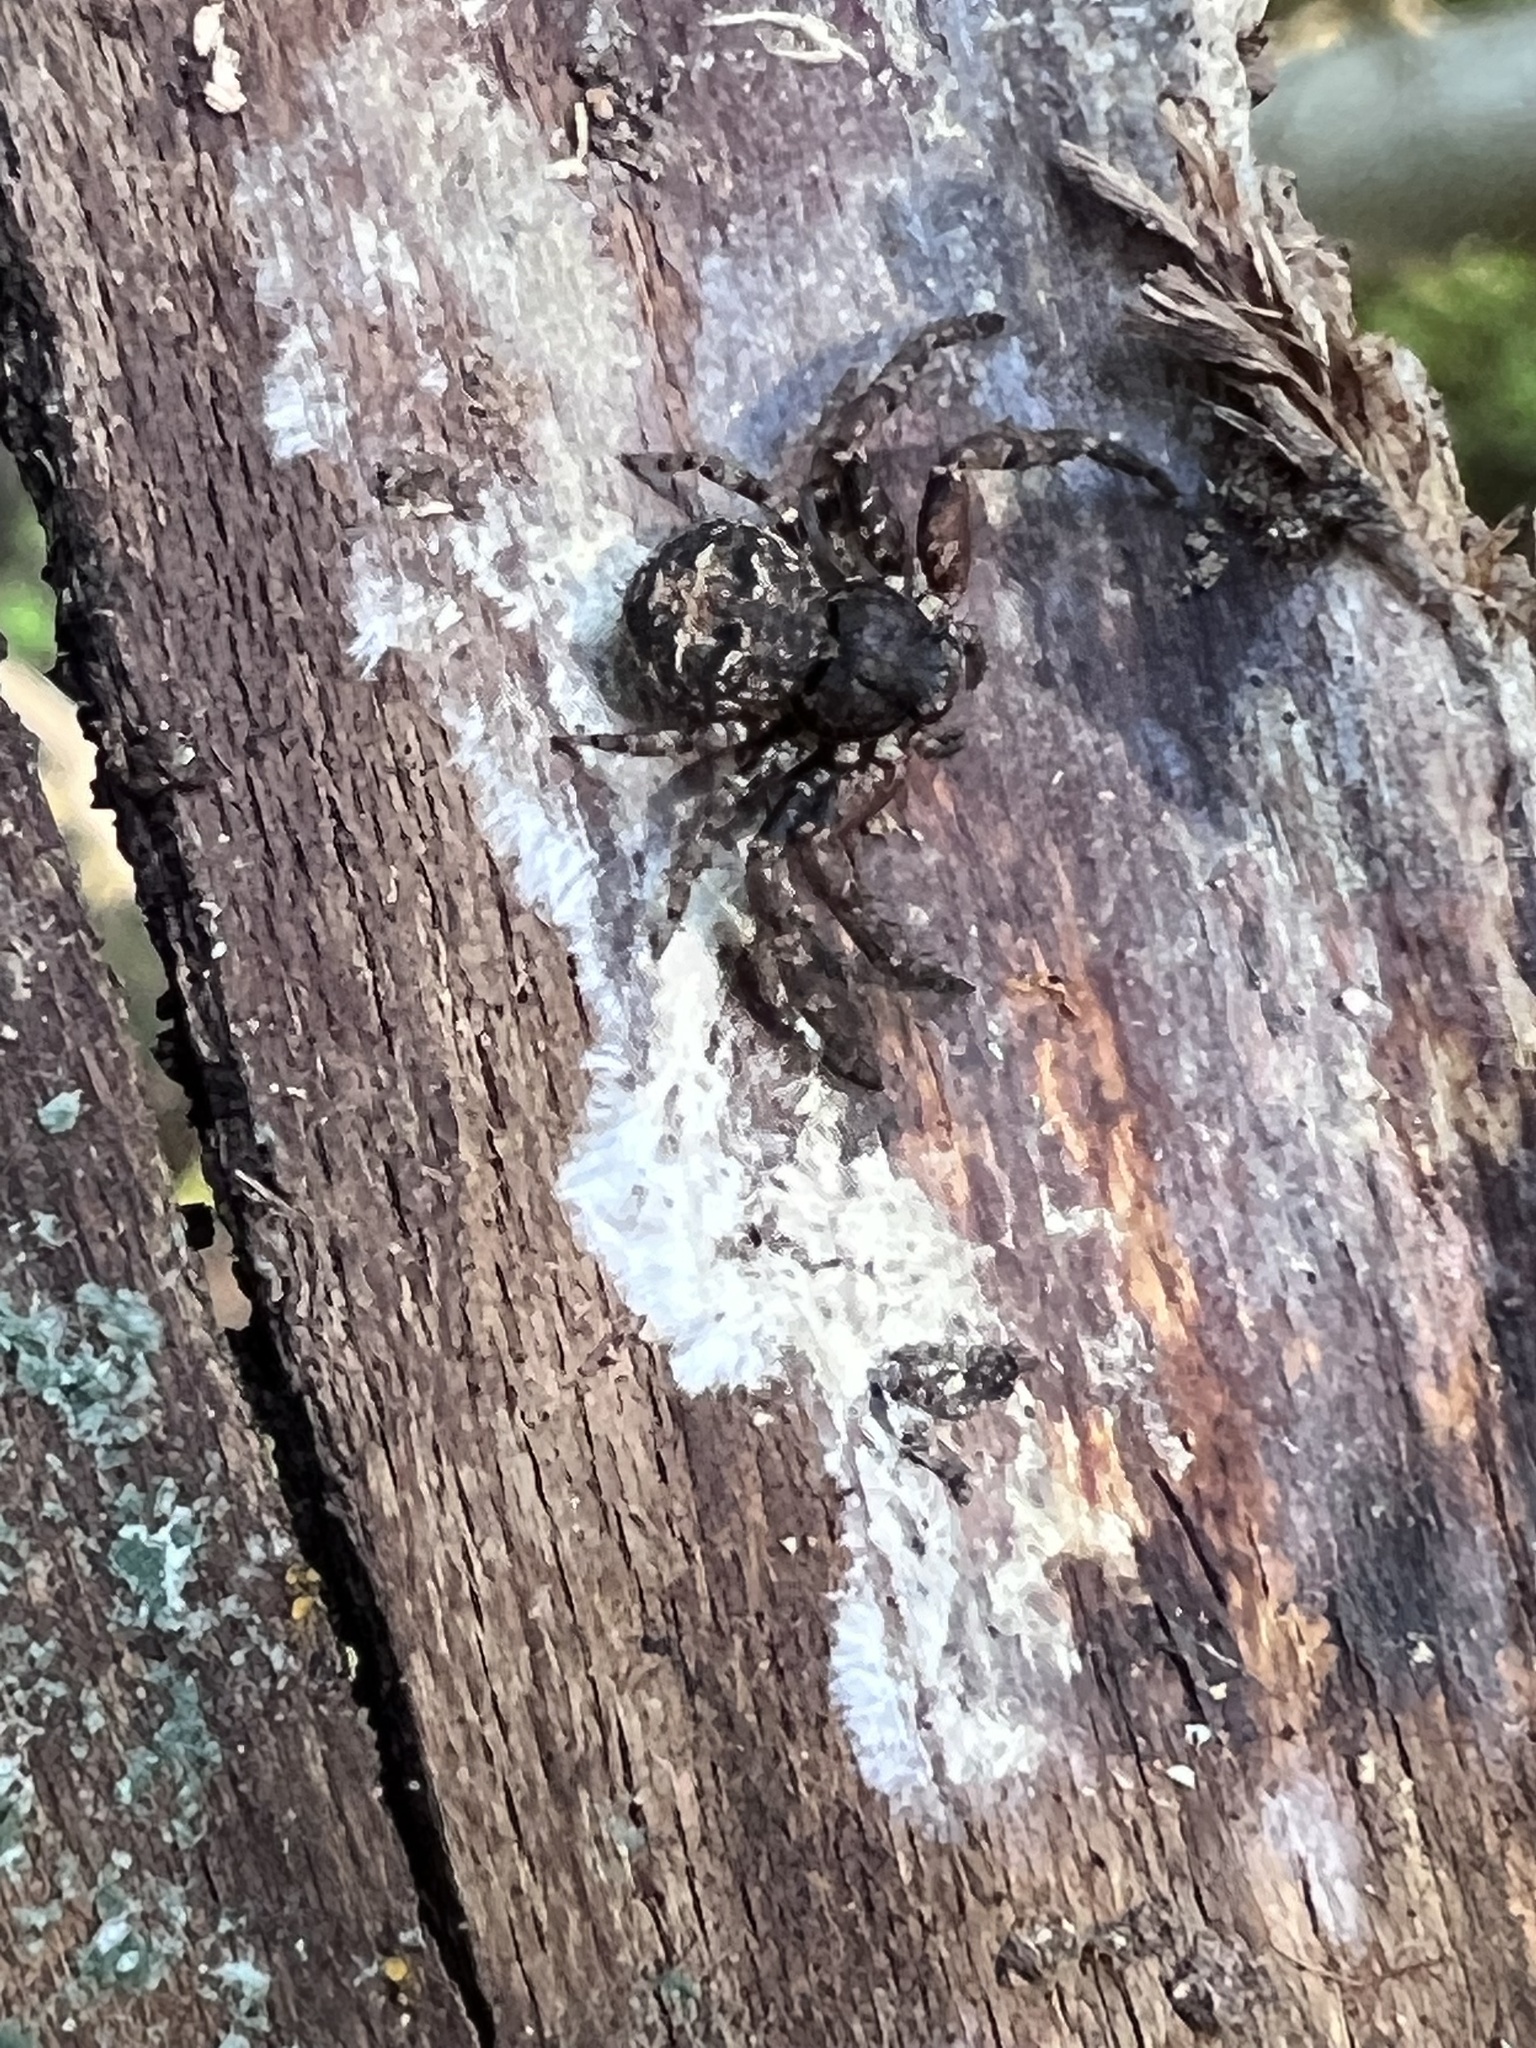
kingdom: Animalia
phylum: Arthropoda
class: Arachnida
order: Araneae
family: Thomisidae
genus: Bassaniana
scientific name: Bassaniana versicolor
